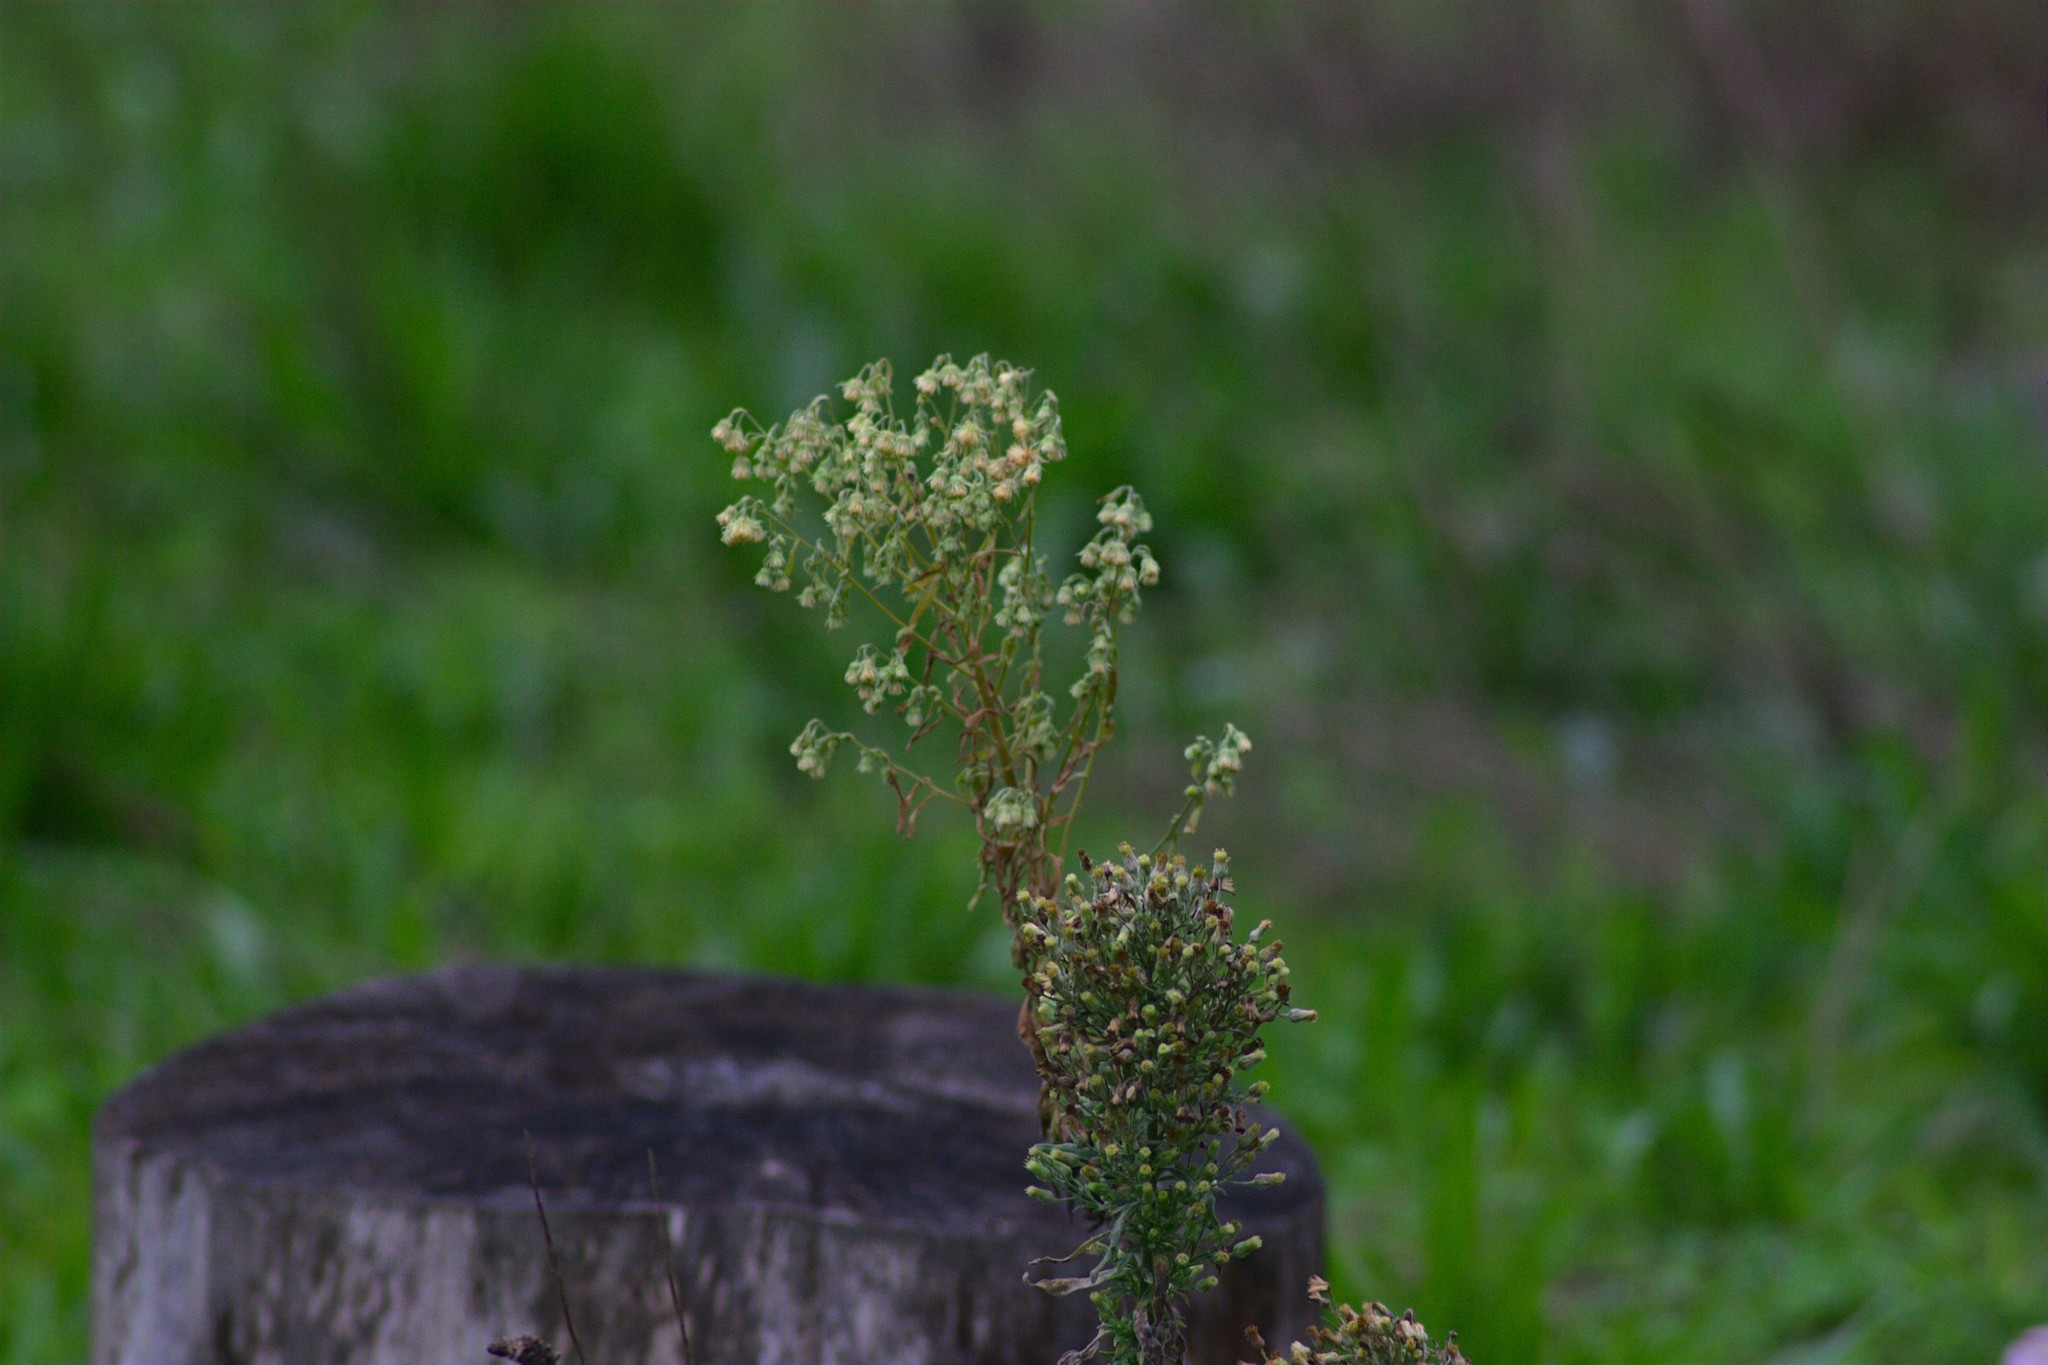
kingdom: Plantae
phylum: Tracheophyta
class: Magnoliopsida
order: Asterales
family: Asteraceae
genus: Erigeron
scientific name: Erigeron canadensis
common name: Canadian fleabane
